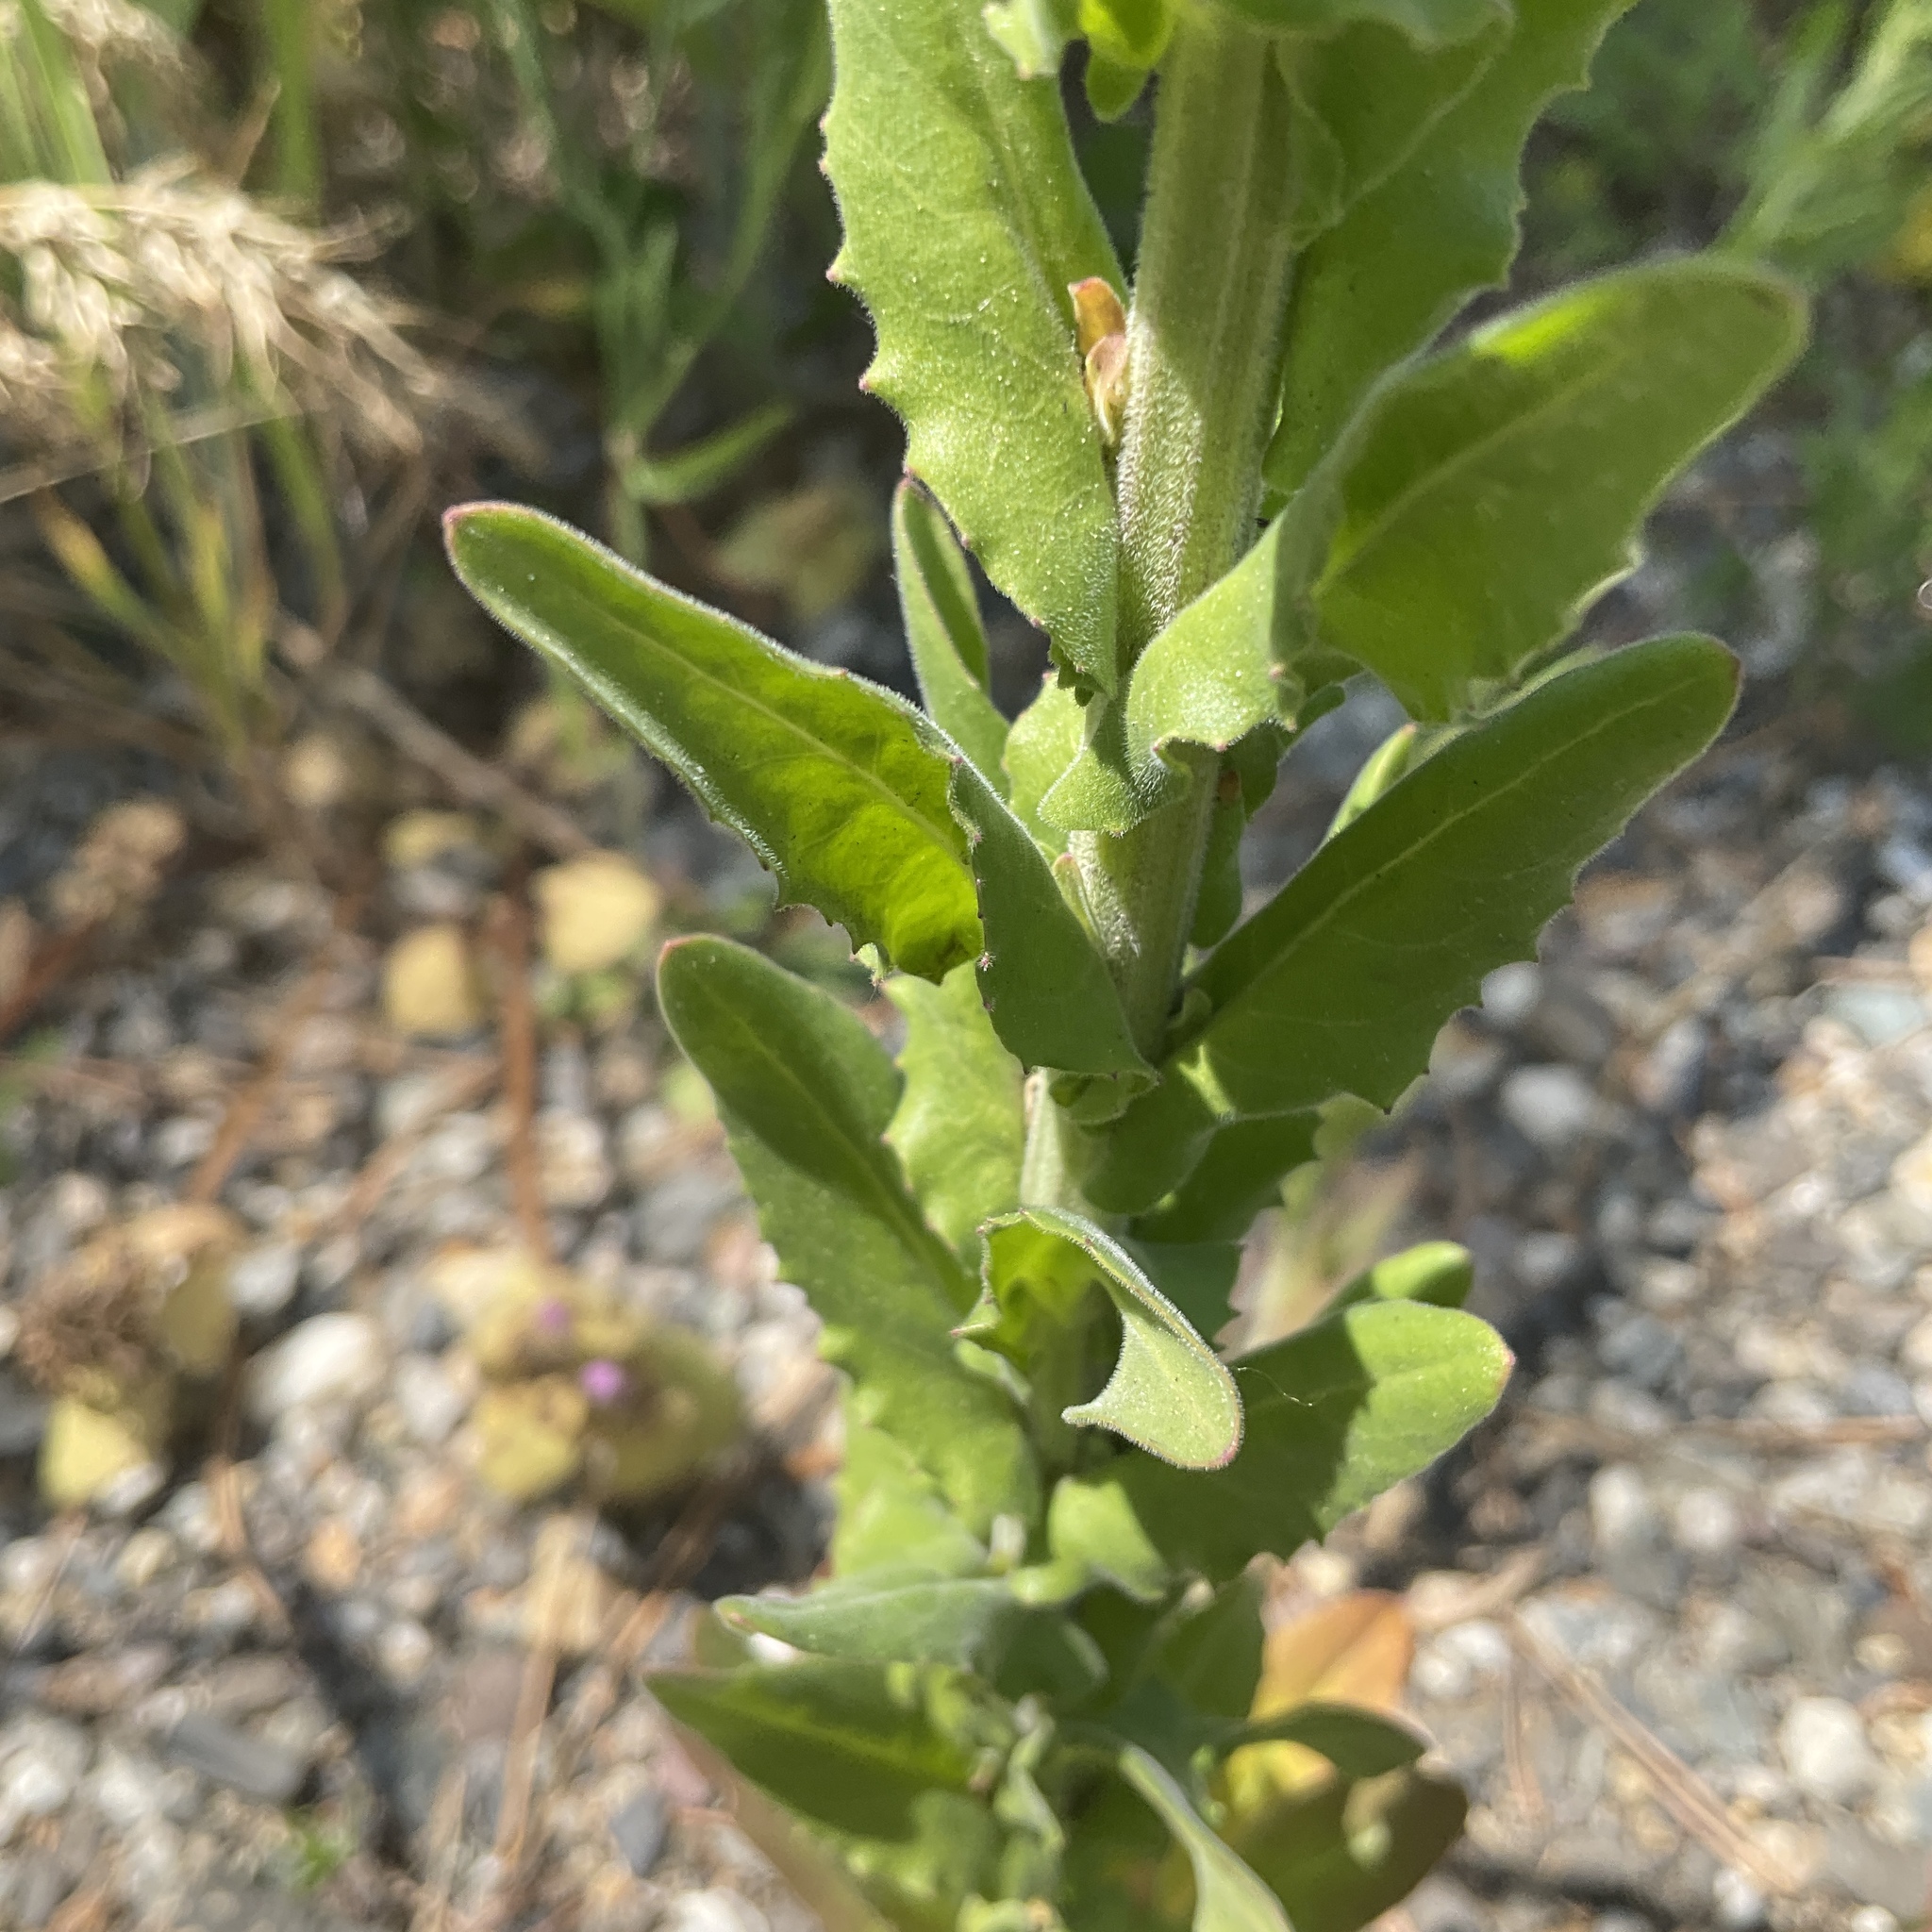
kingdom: Plantae
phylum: Tracheophyta
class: Magnoliopsida
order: Brassicales
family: Brassicaceae
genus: Lepidium
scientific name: Lepidium campestre
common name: Field pepperwort
